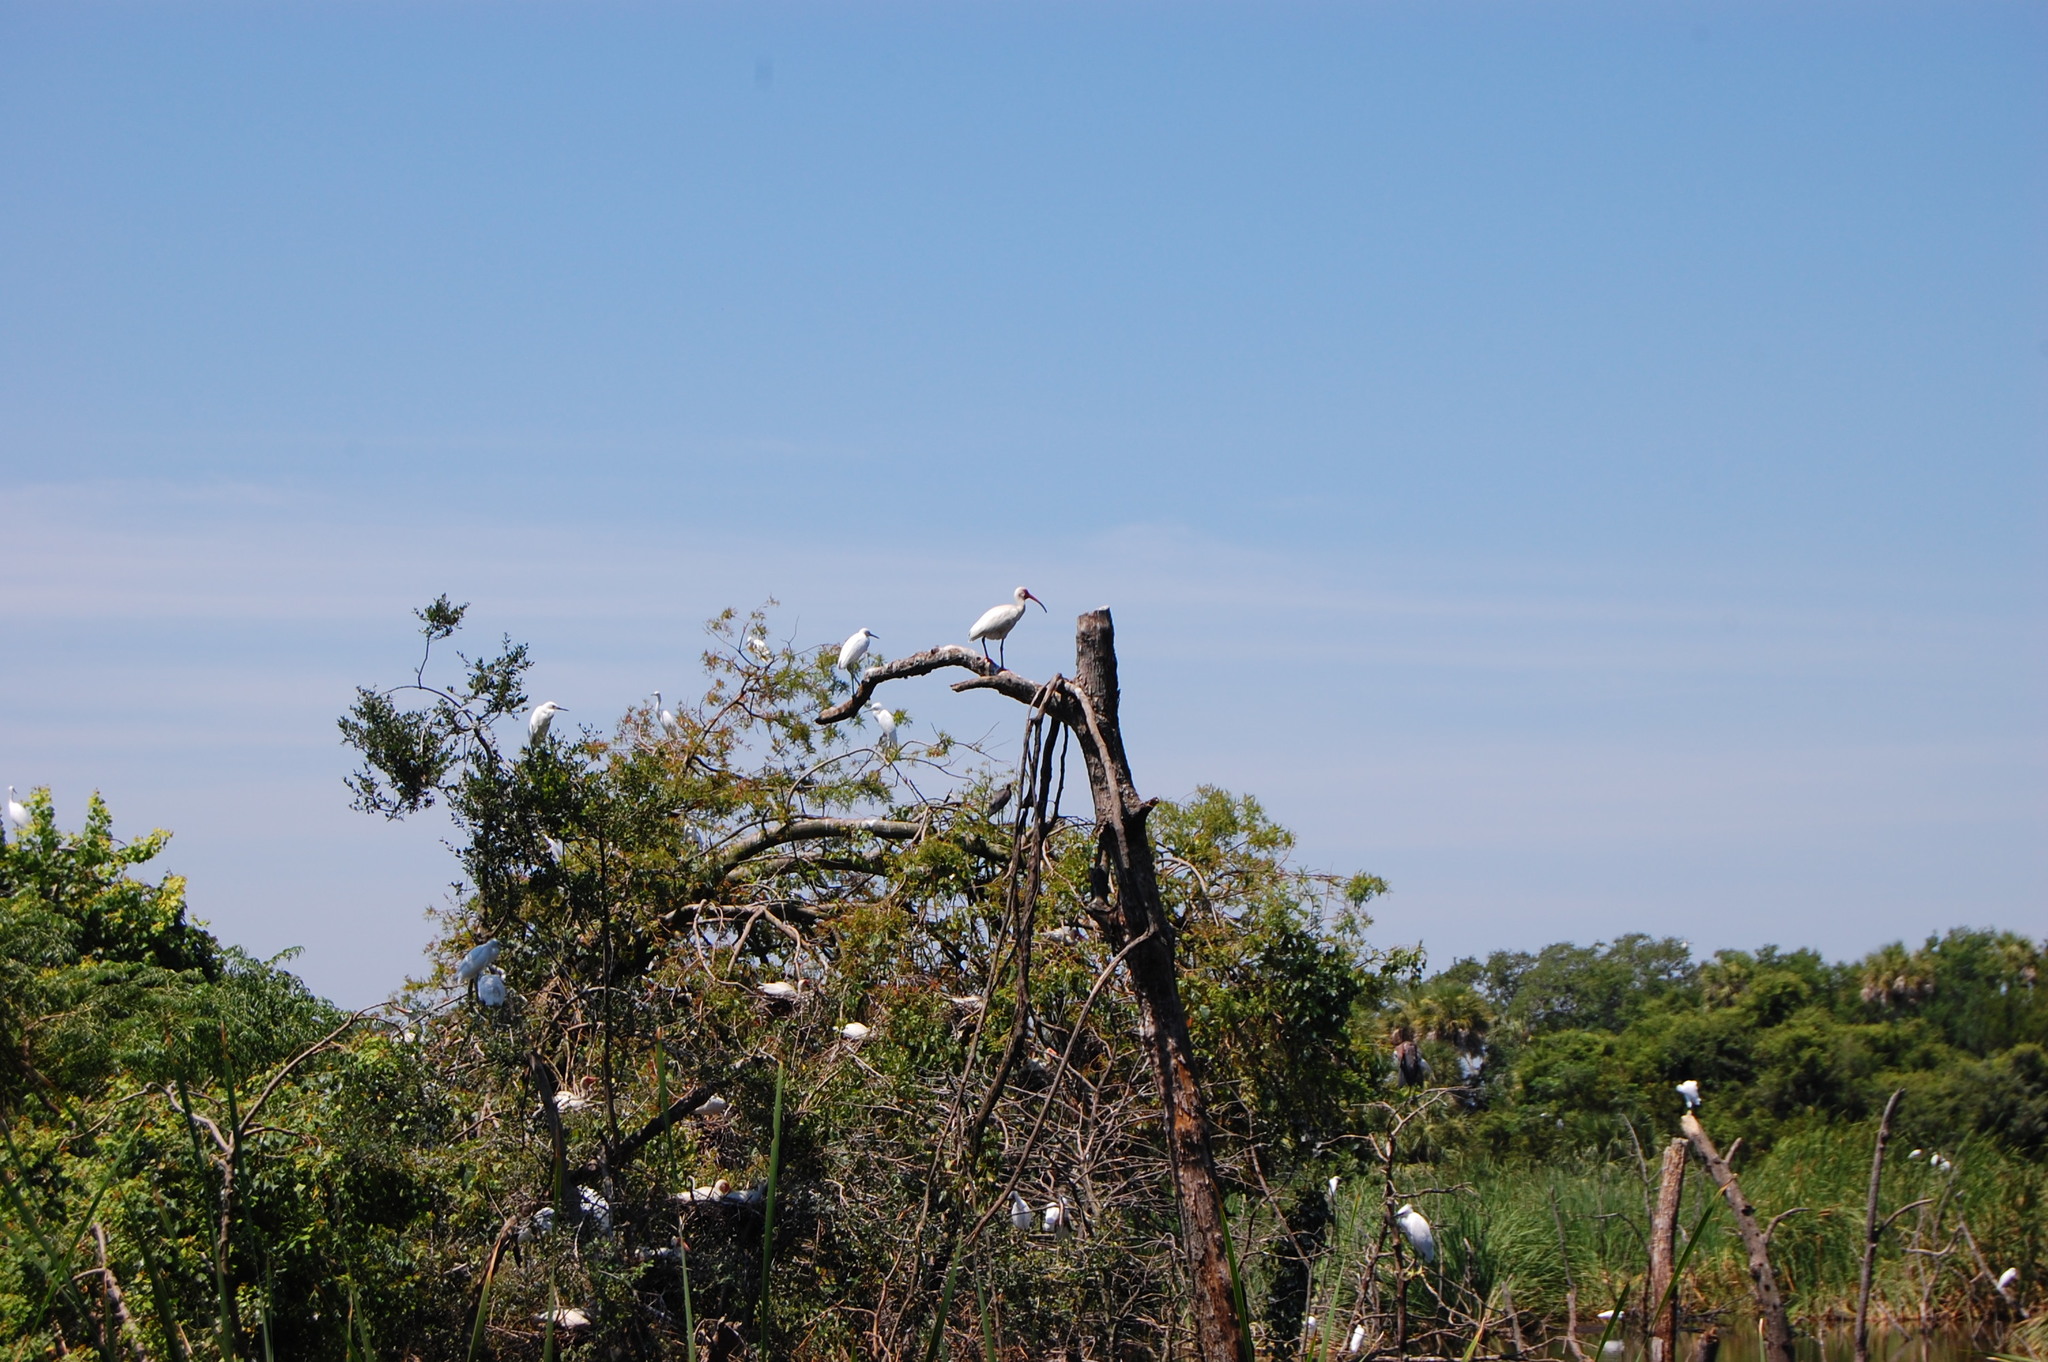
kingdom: Animalia
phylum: Chordata
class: Aves
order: Pelecaniformes
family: Threskiornithidae
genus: Eudocimus
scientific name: Eudocimus albus
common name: White ibis
